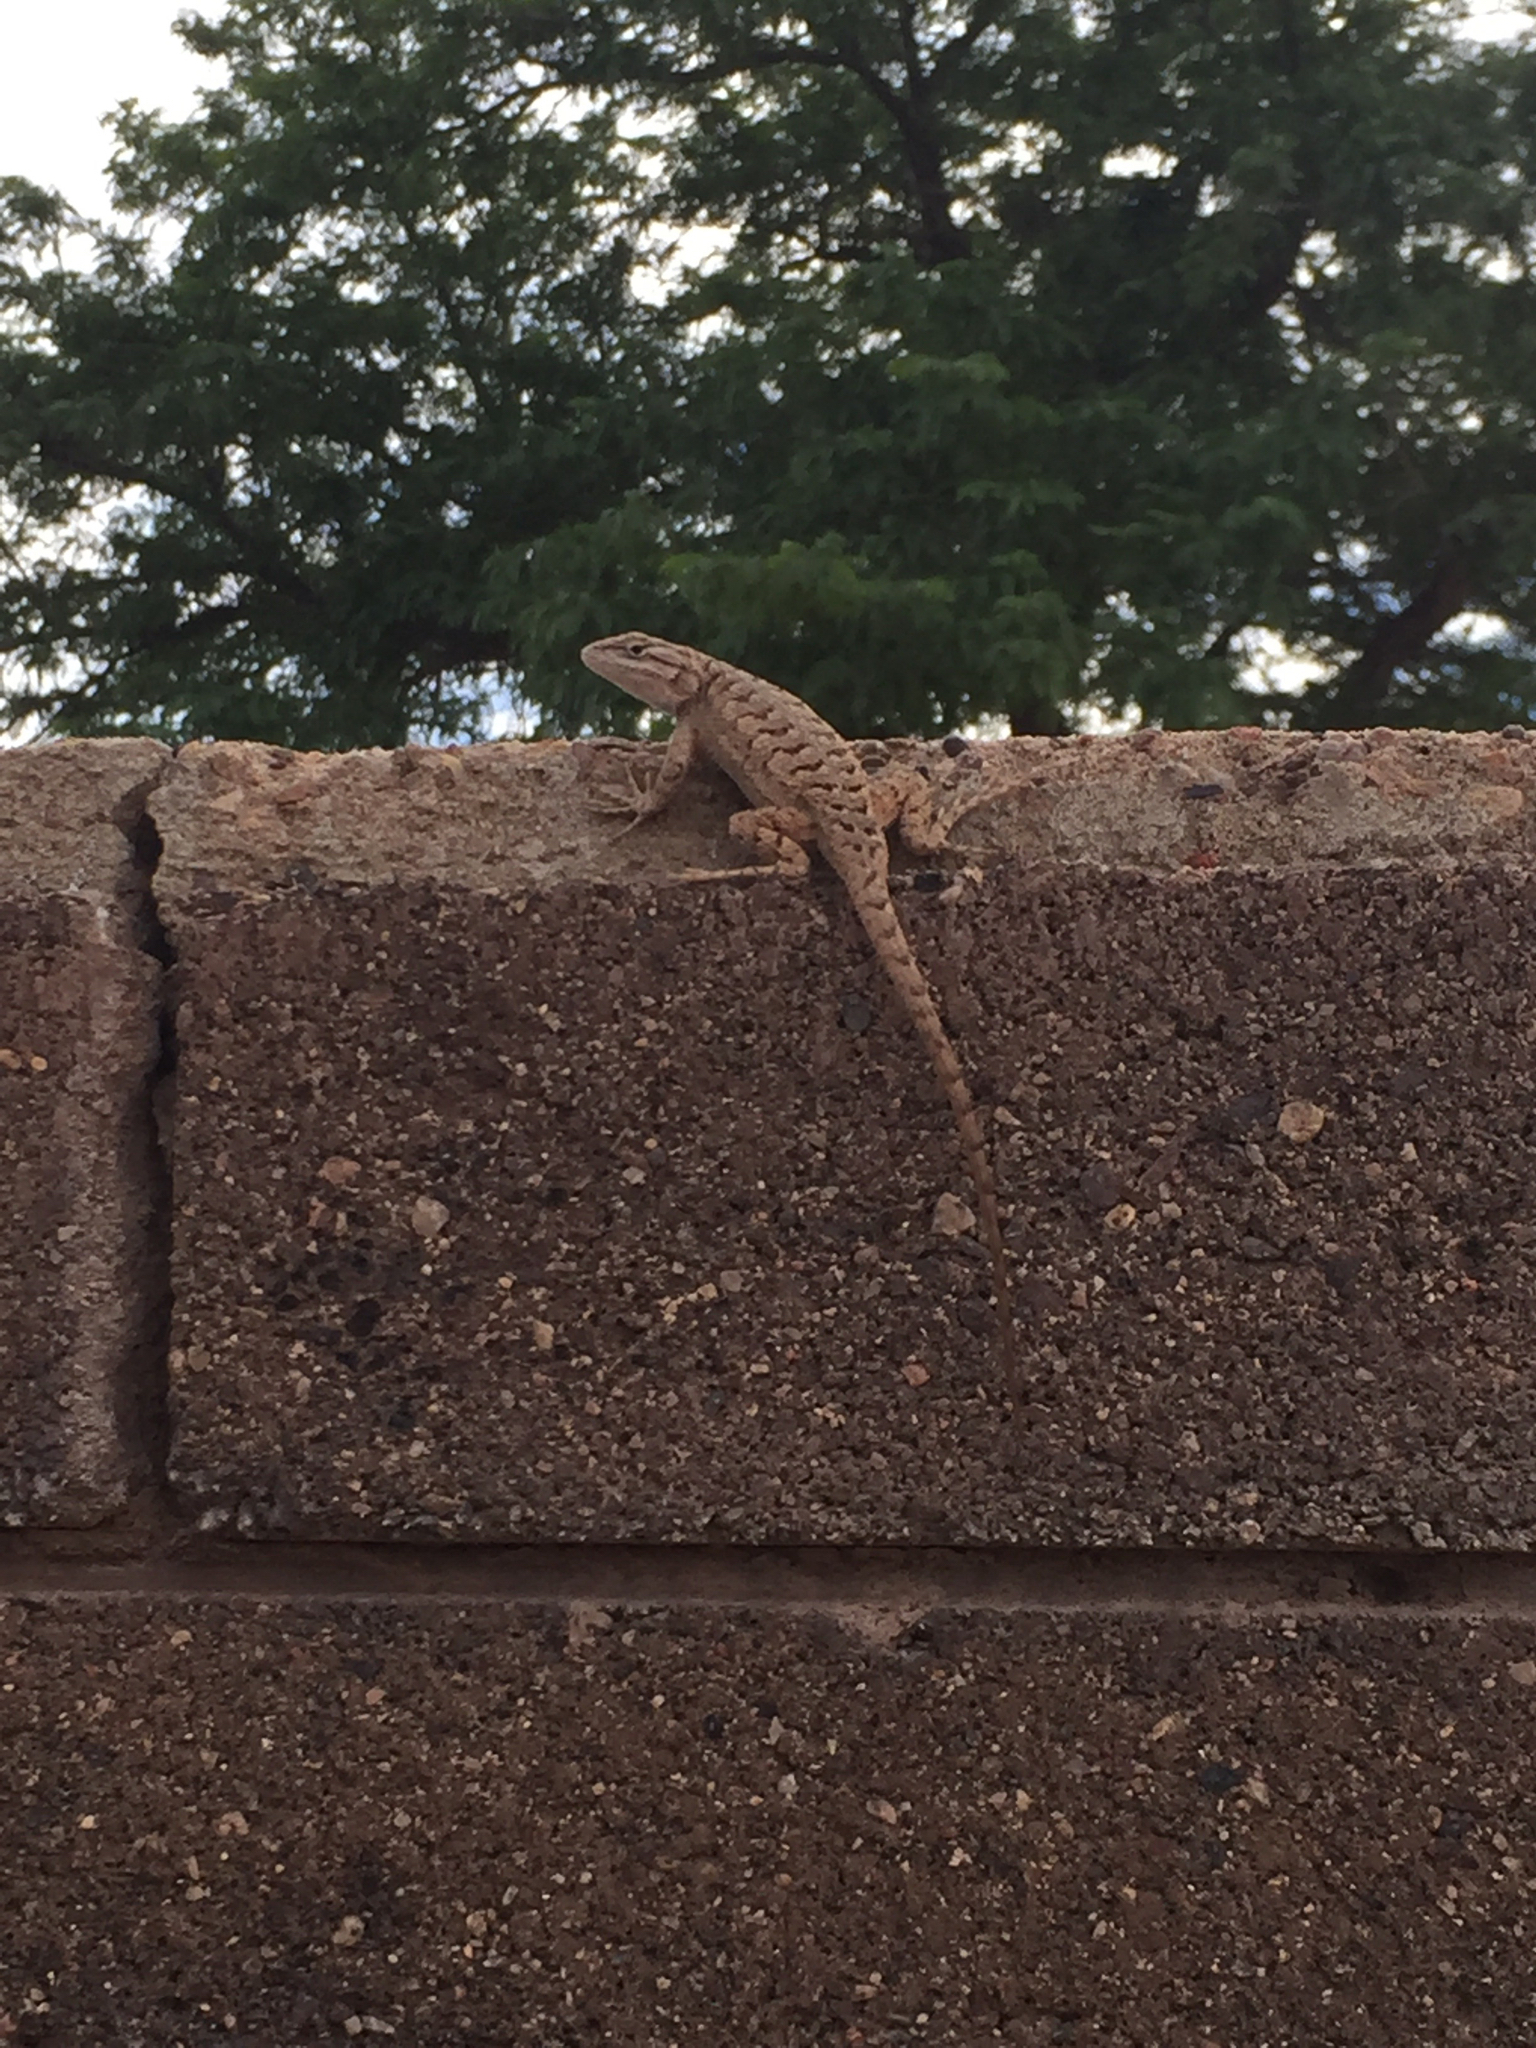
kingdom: Animalia
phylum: Chordata
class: Squamata
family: Phrynosomatidae
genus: Sceloporus
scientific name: Sceloporus tristichus
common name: Plateau fence lizard
